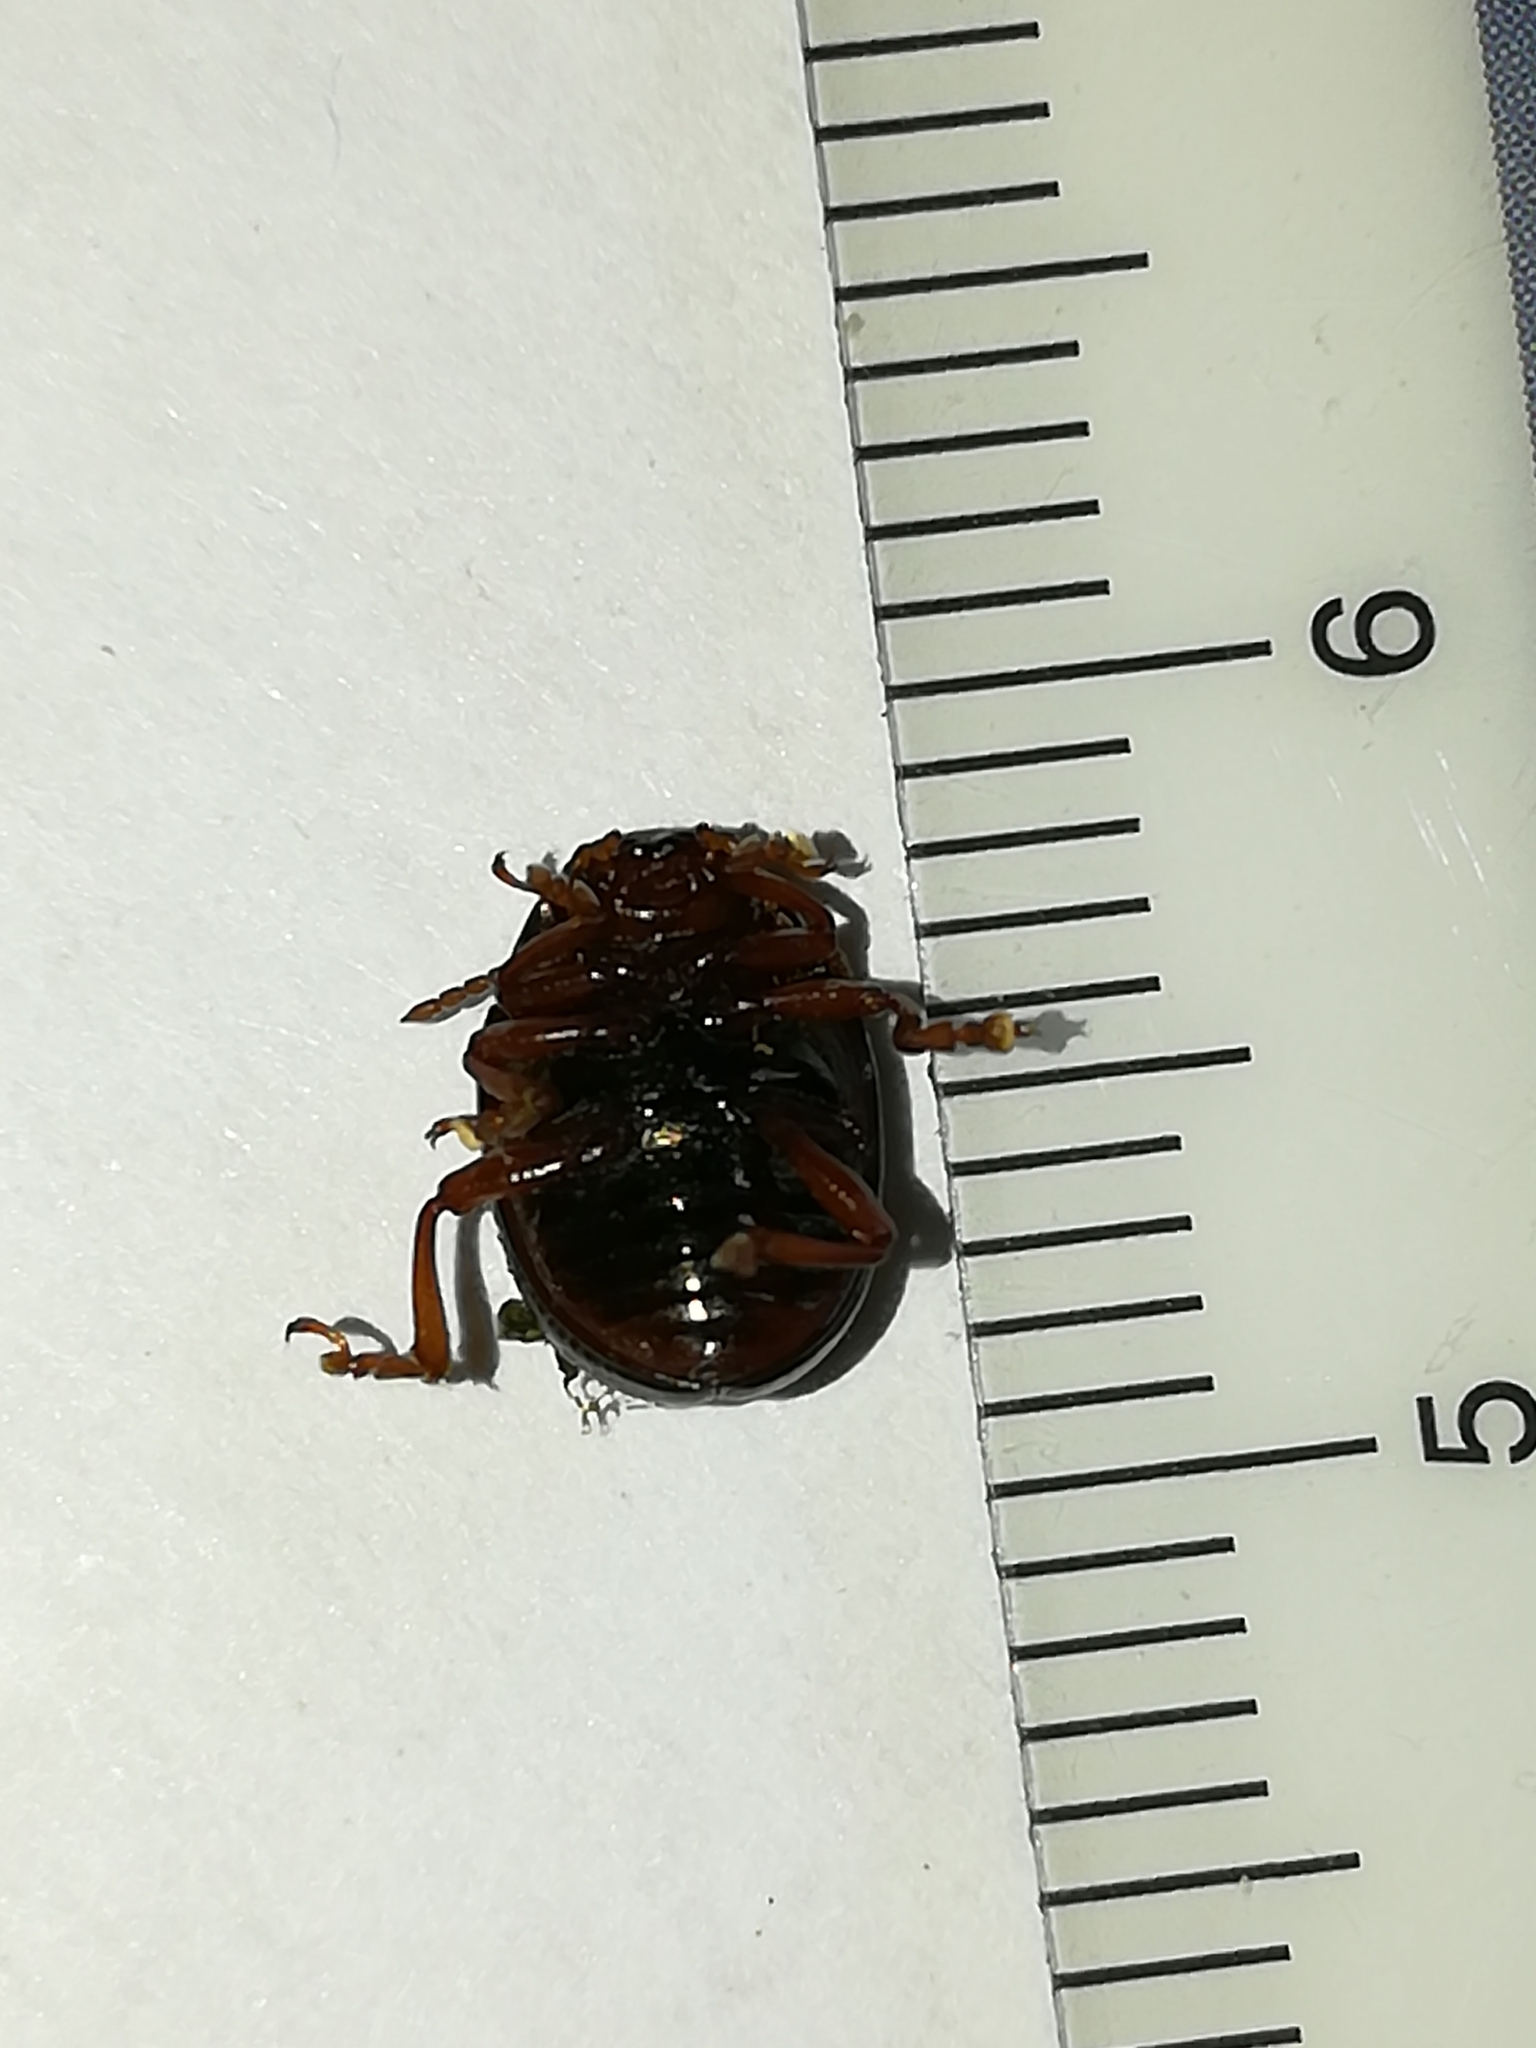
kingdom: Animalia
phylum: Arthropoda
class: Insecta
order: Coleoptera
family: Chrysomelidae
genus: Chrysolina
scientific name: Chrysolina bankii
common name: Leaf beetle
